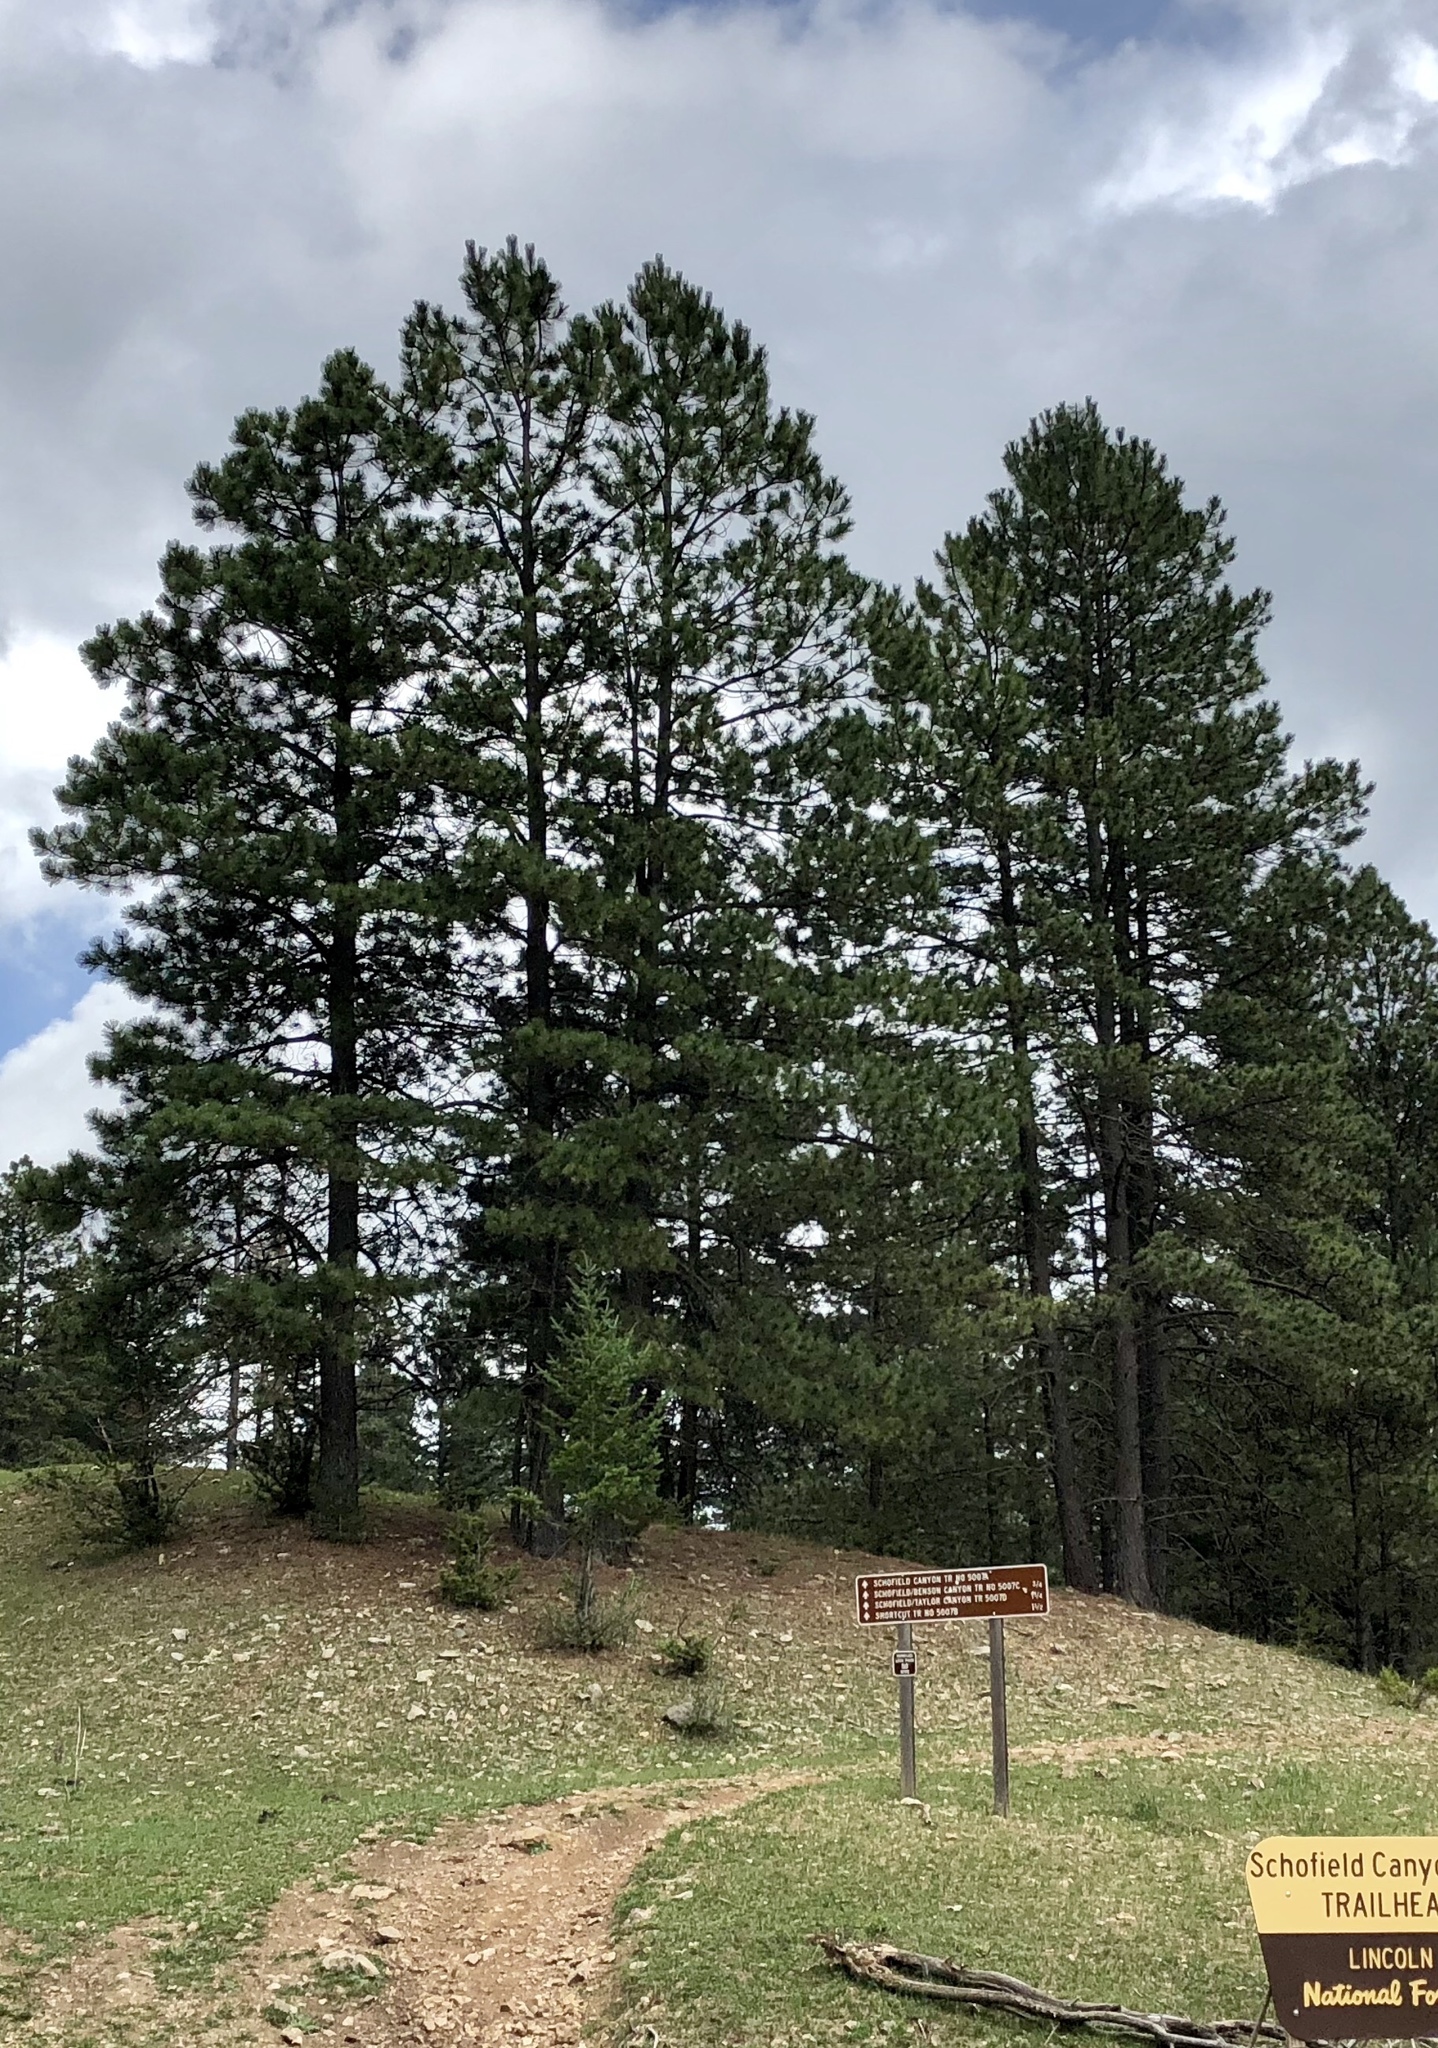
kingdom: Plantae
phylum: Tracheophyta
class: Pinopsida
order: Pinales
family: Pinaceae
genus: Pinus
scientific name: Pinus ponderosa
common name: Western yellow-pine
